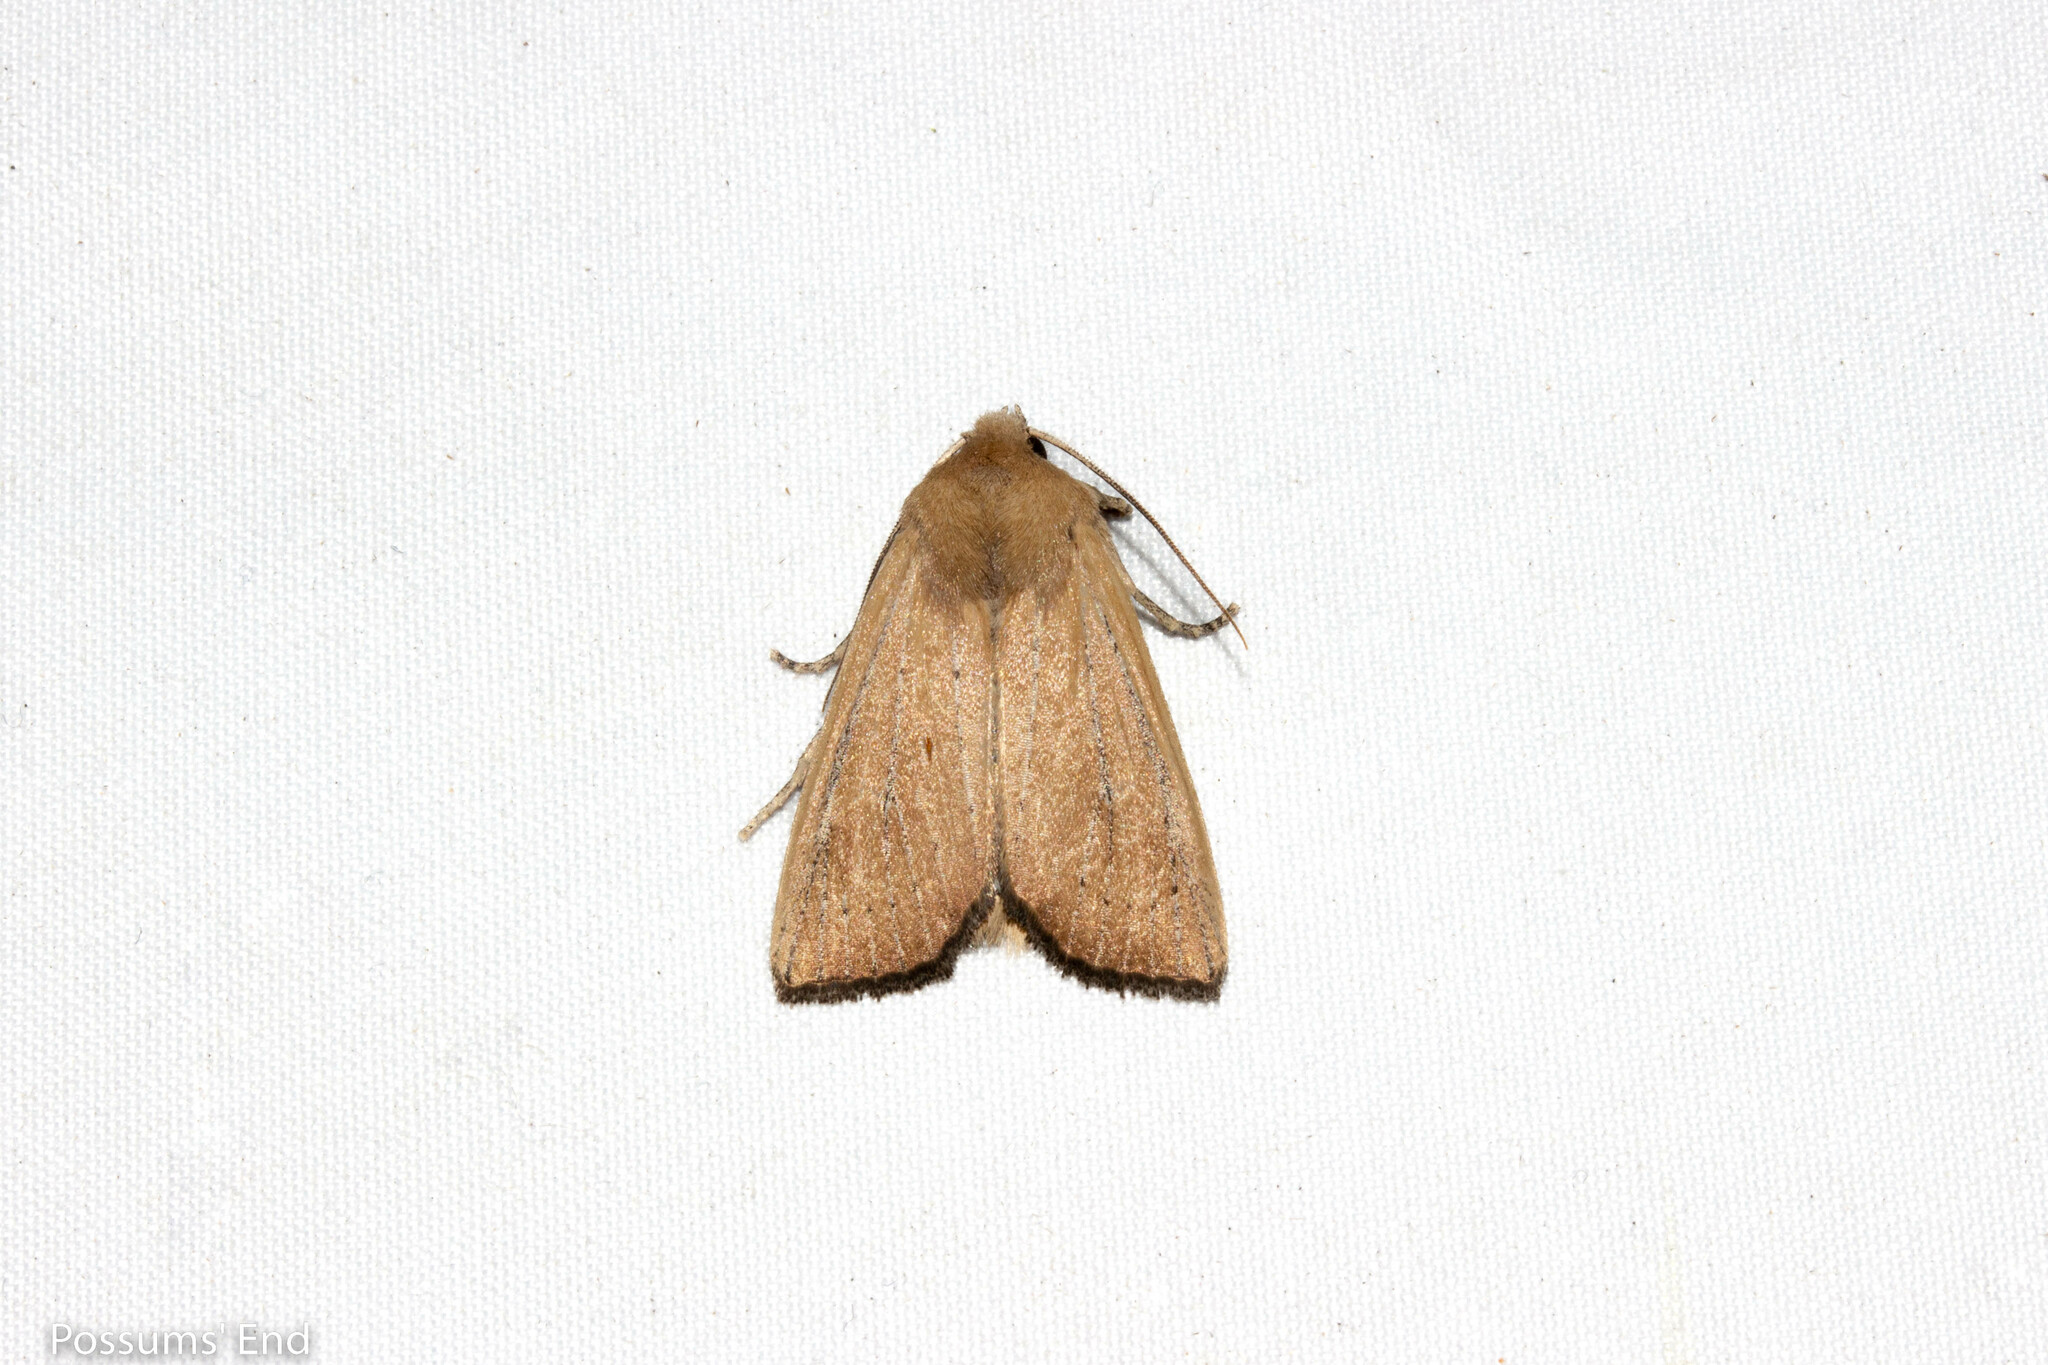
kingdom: Animalia
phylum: Arthropoda
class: Insecta
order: Lepidoptera
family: Noctuidae
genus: Ichneutica
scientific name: Ichneutica blenheimensis
